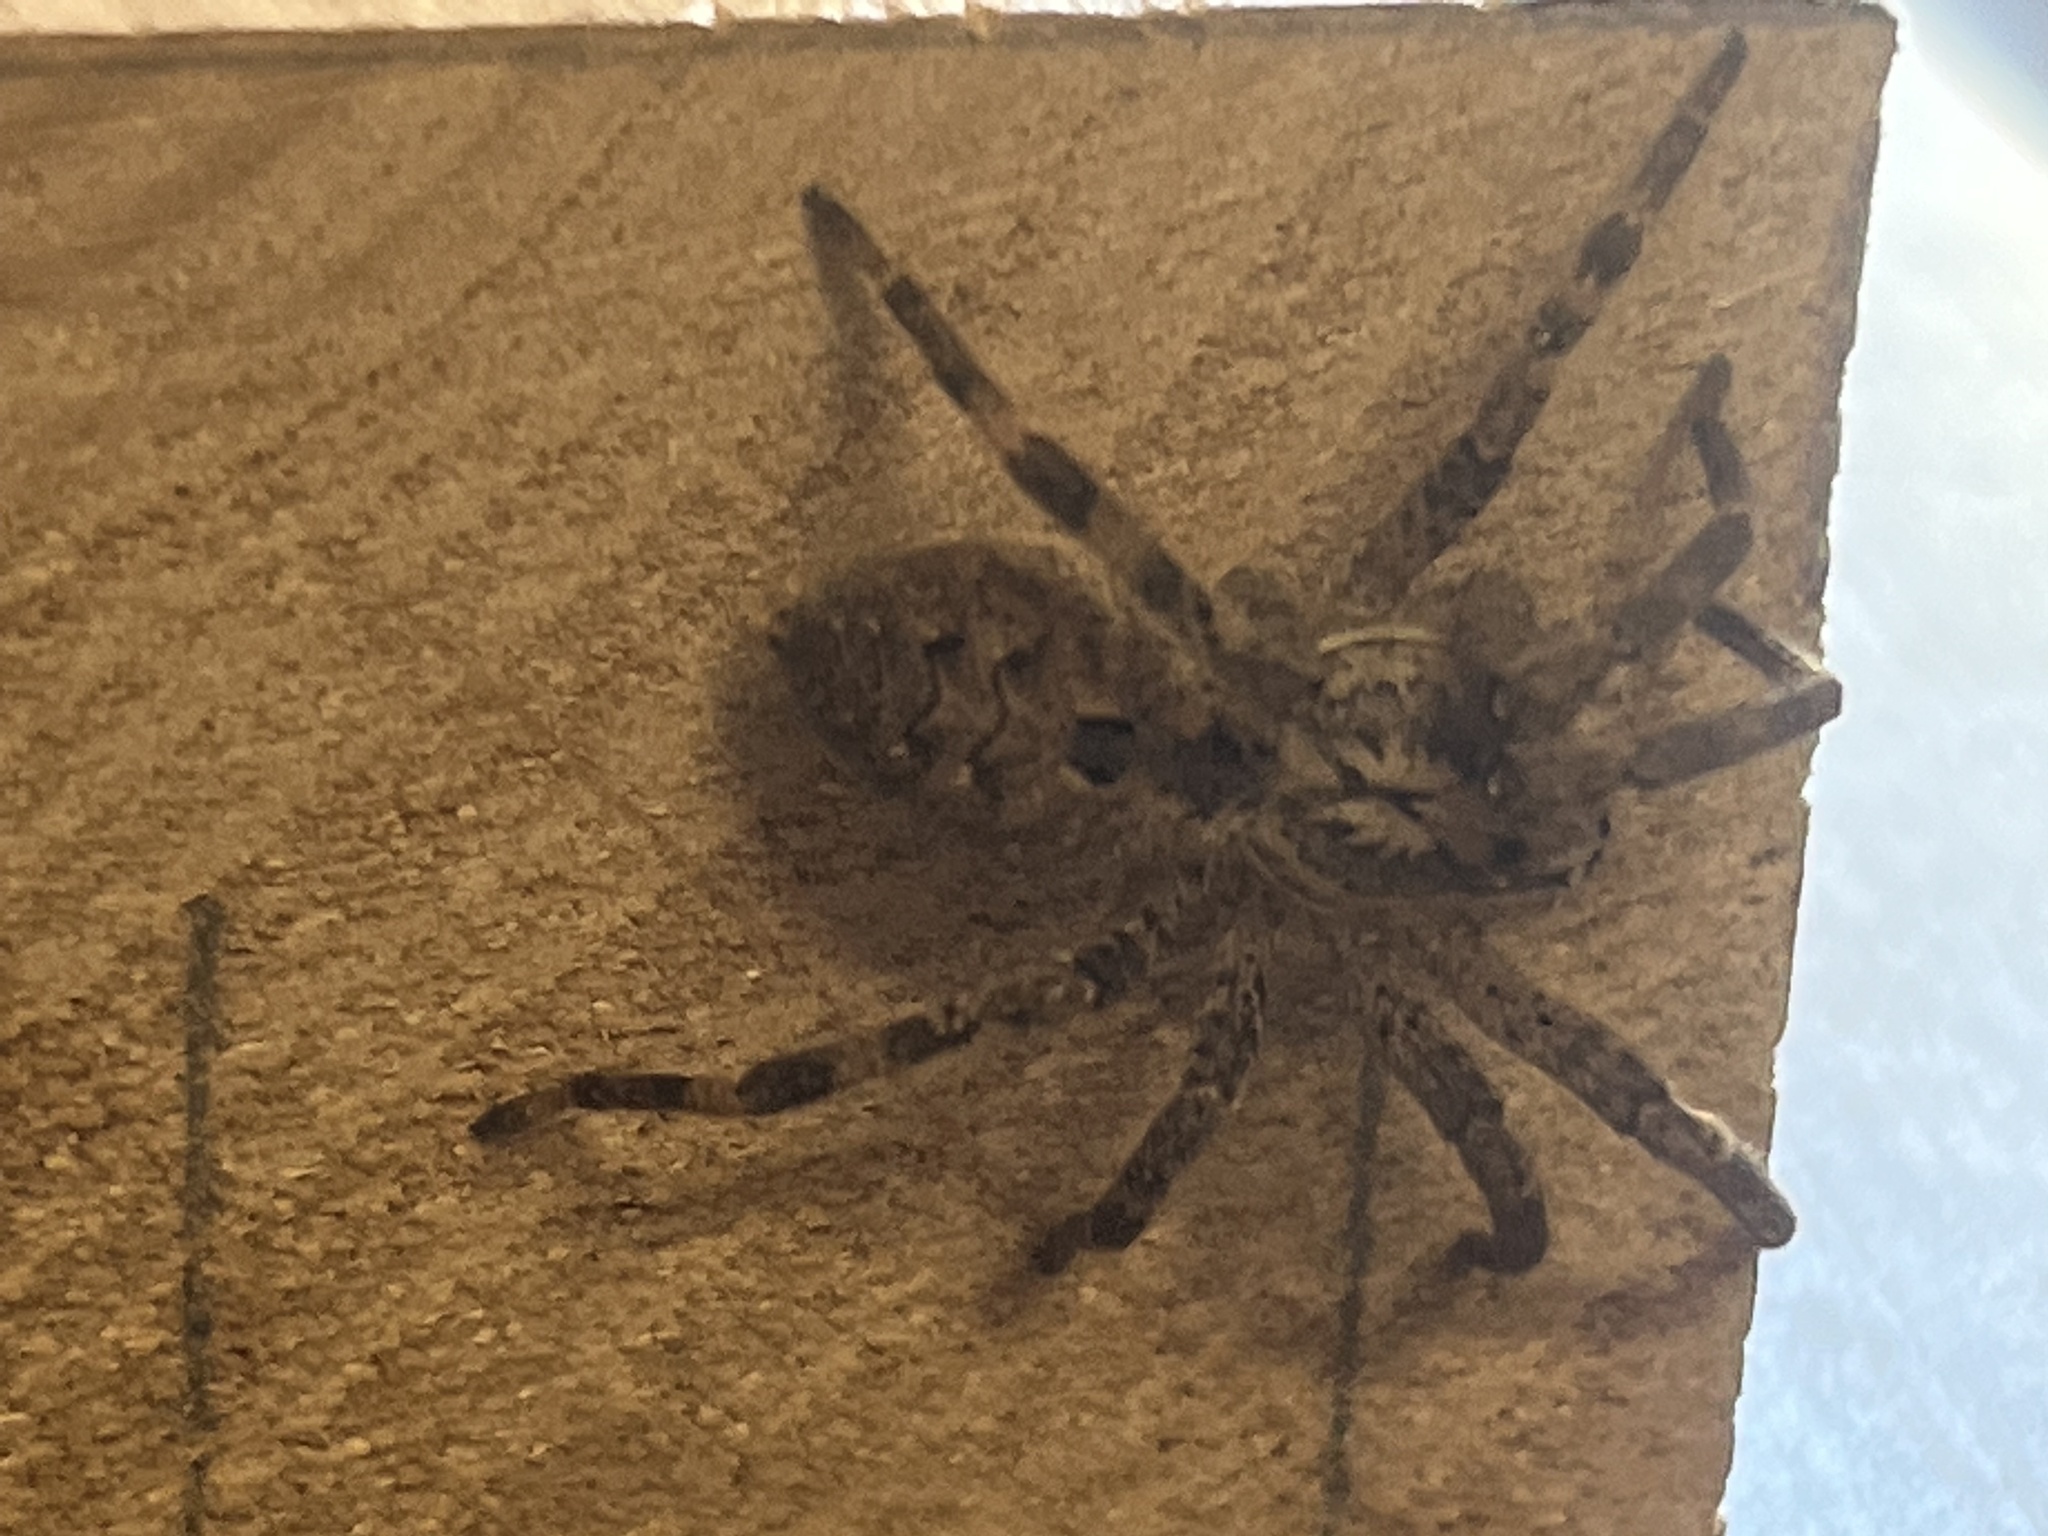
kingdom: Animalia
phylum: Arthropoda
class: Arachnida
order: Araneae
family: Zoropsidae
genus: Zoropsis
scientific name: Zoropsis spinimana
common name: Zoropsid spider
